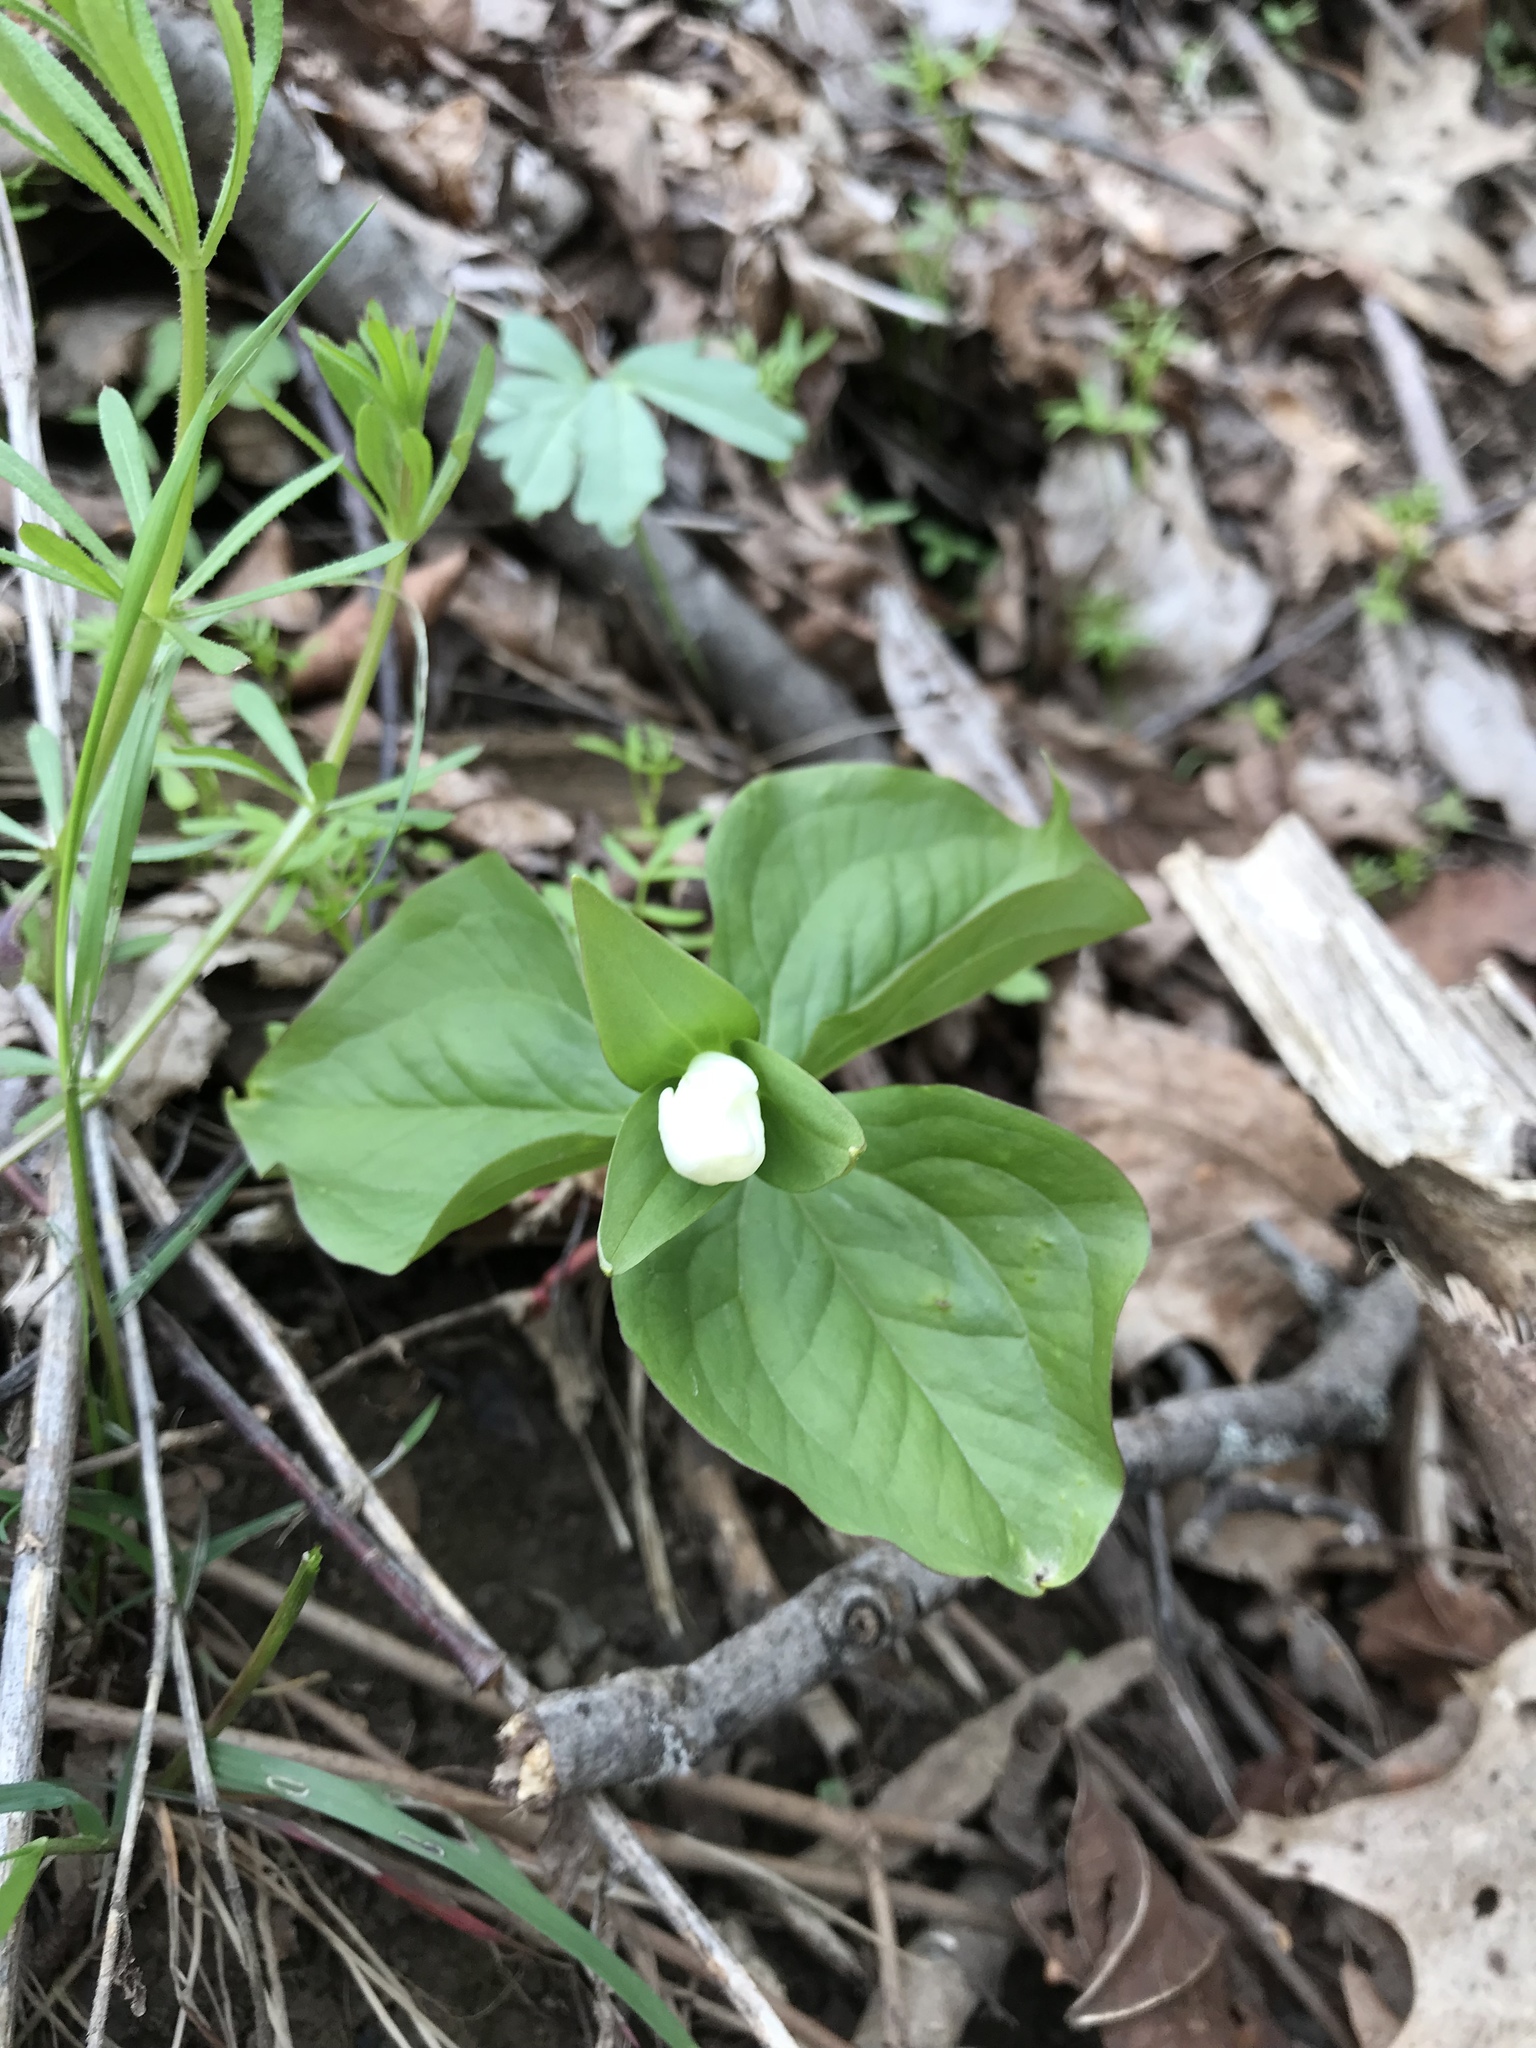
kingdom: Plantae
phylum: Tracheophyta
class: Liliopsida
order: Liliales
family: Melanthiaceae
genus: Trillium
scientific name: Trillium grandiflorum
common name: Great white trillium
